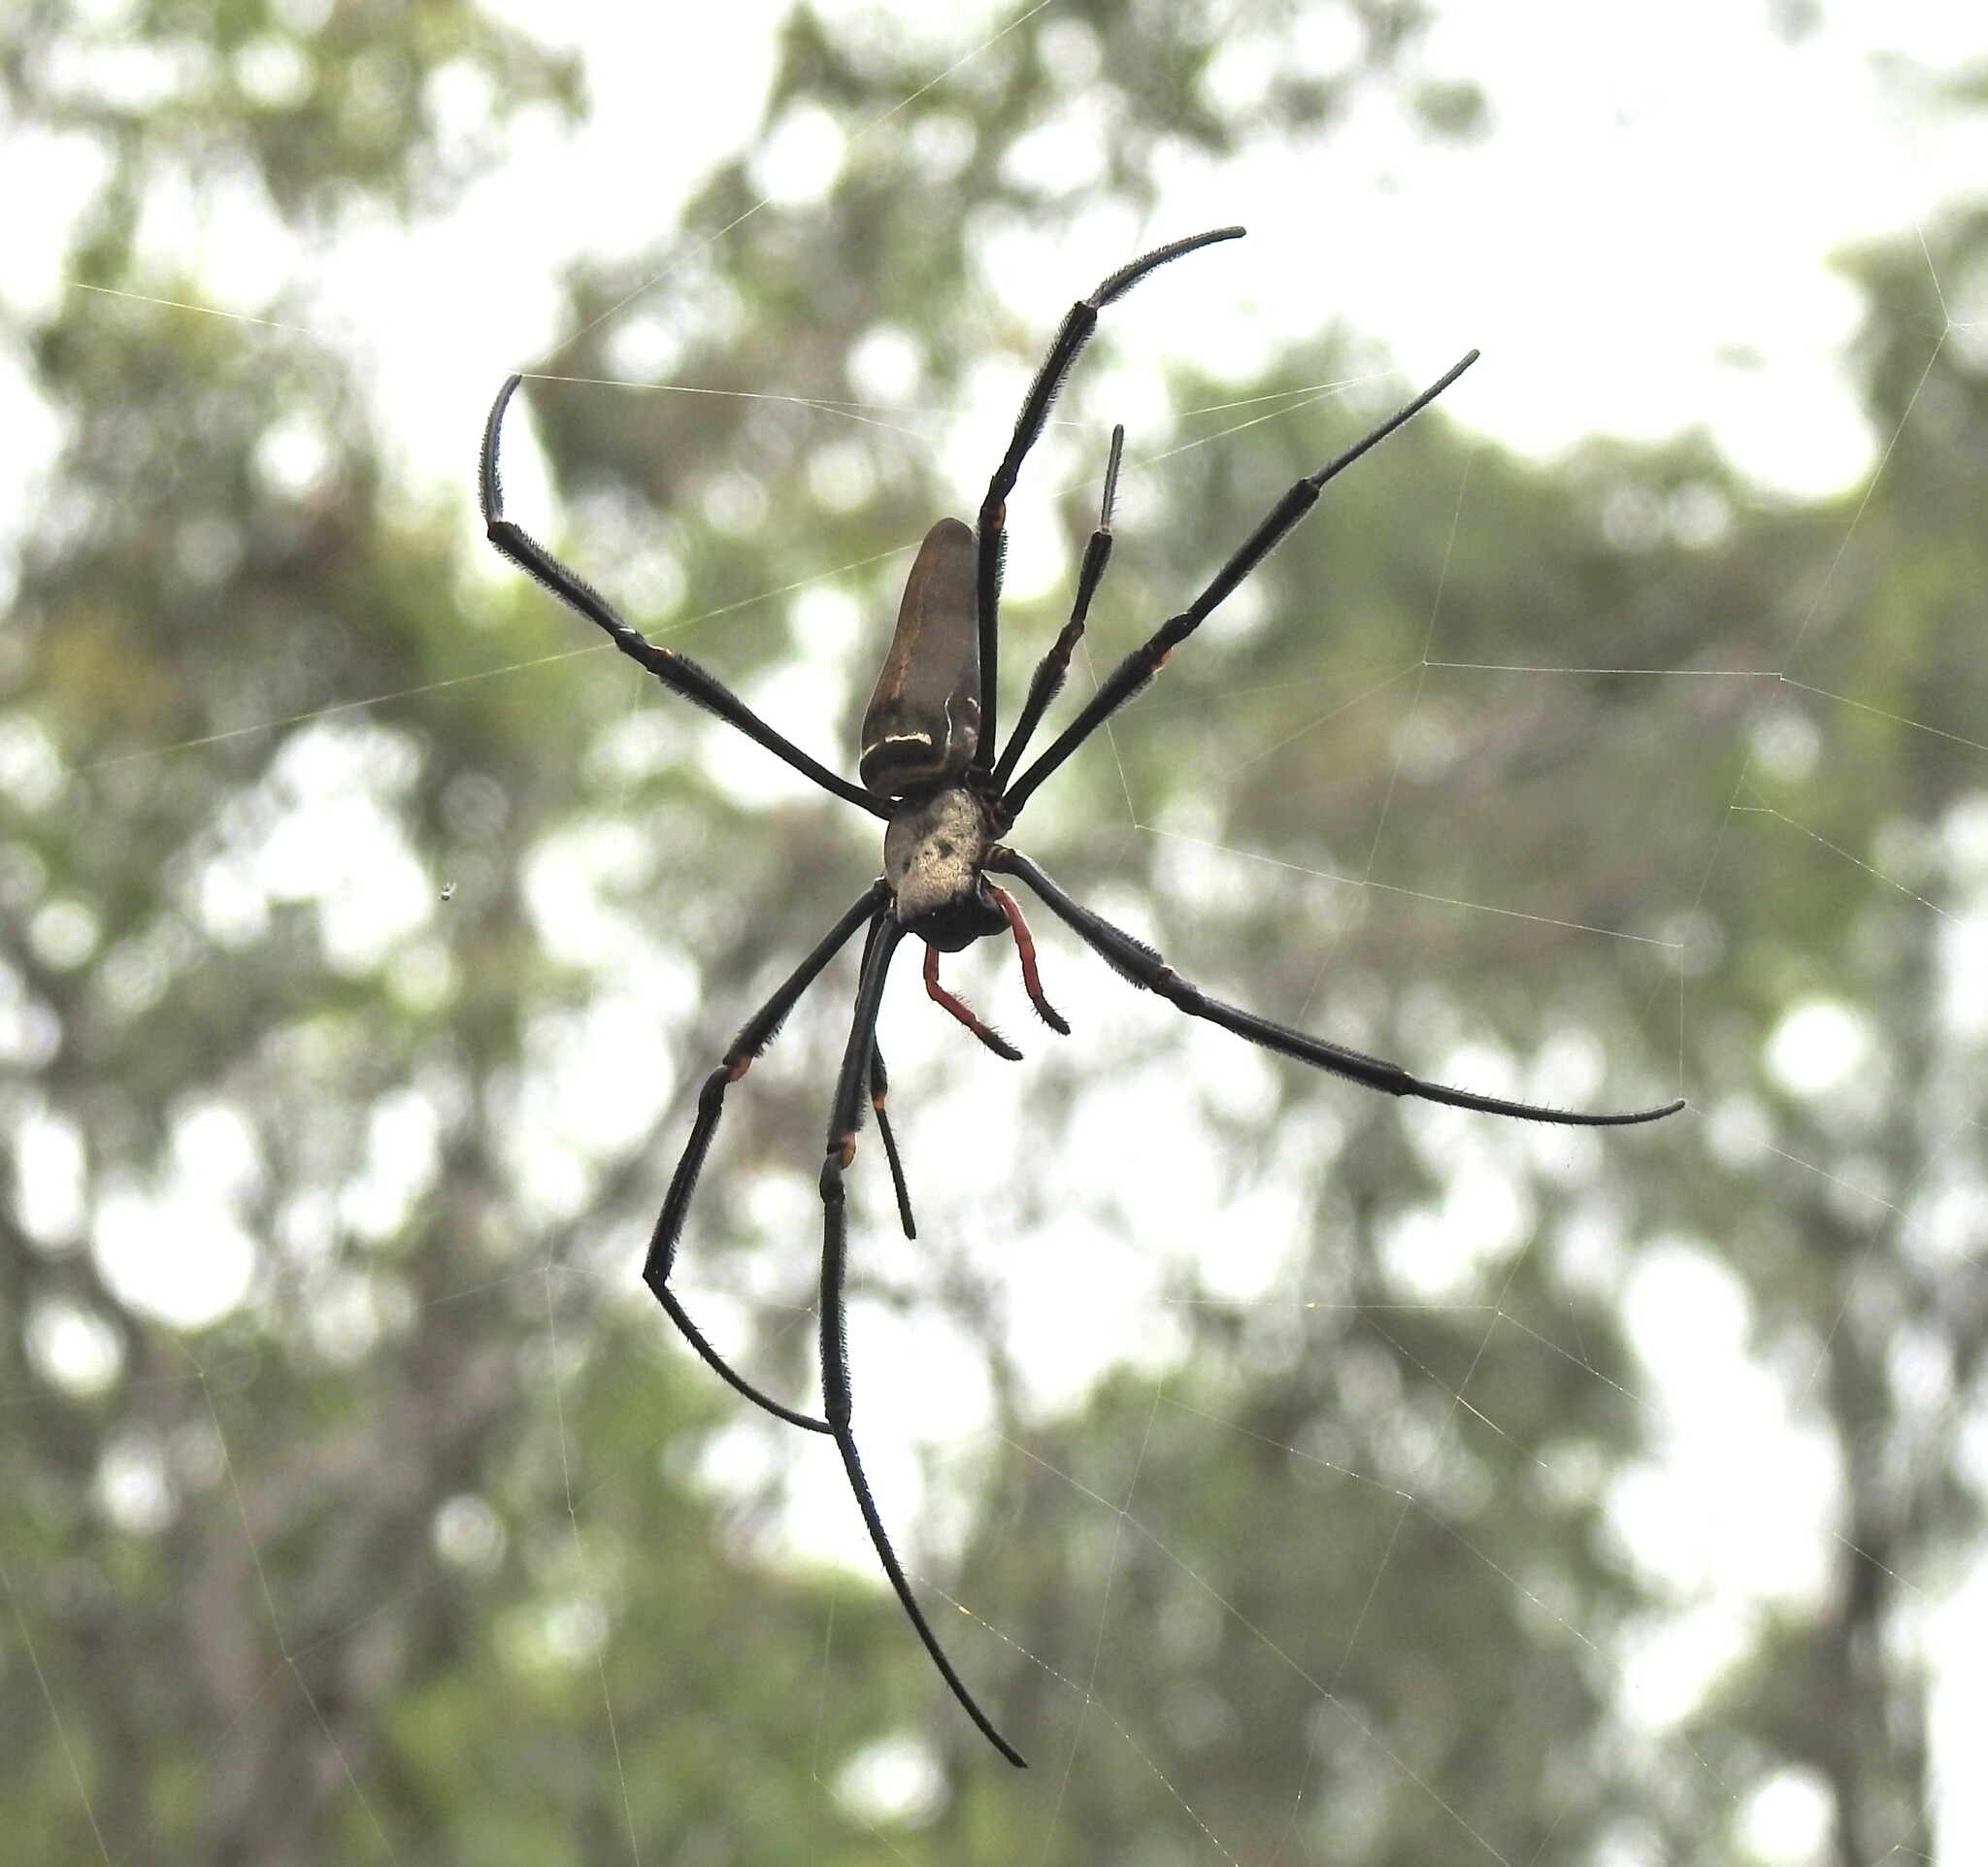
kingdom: Animalia
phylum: Arthropoda
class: Arachnida
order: Araneae
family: Araneidae
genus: Nephila
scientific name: Nephila pilipes
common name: Giant golden orb weaver
